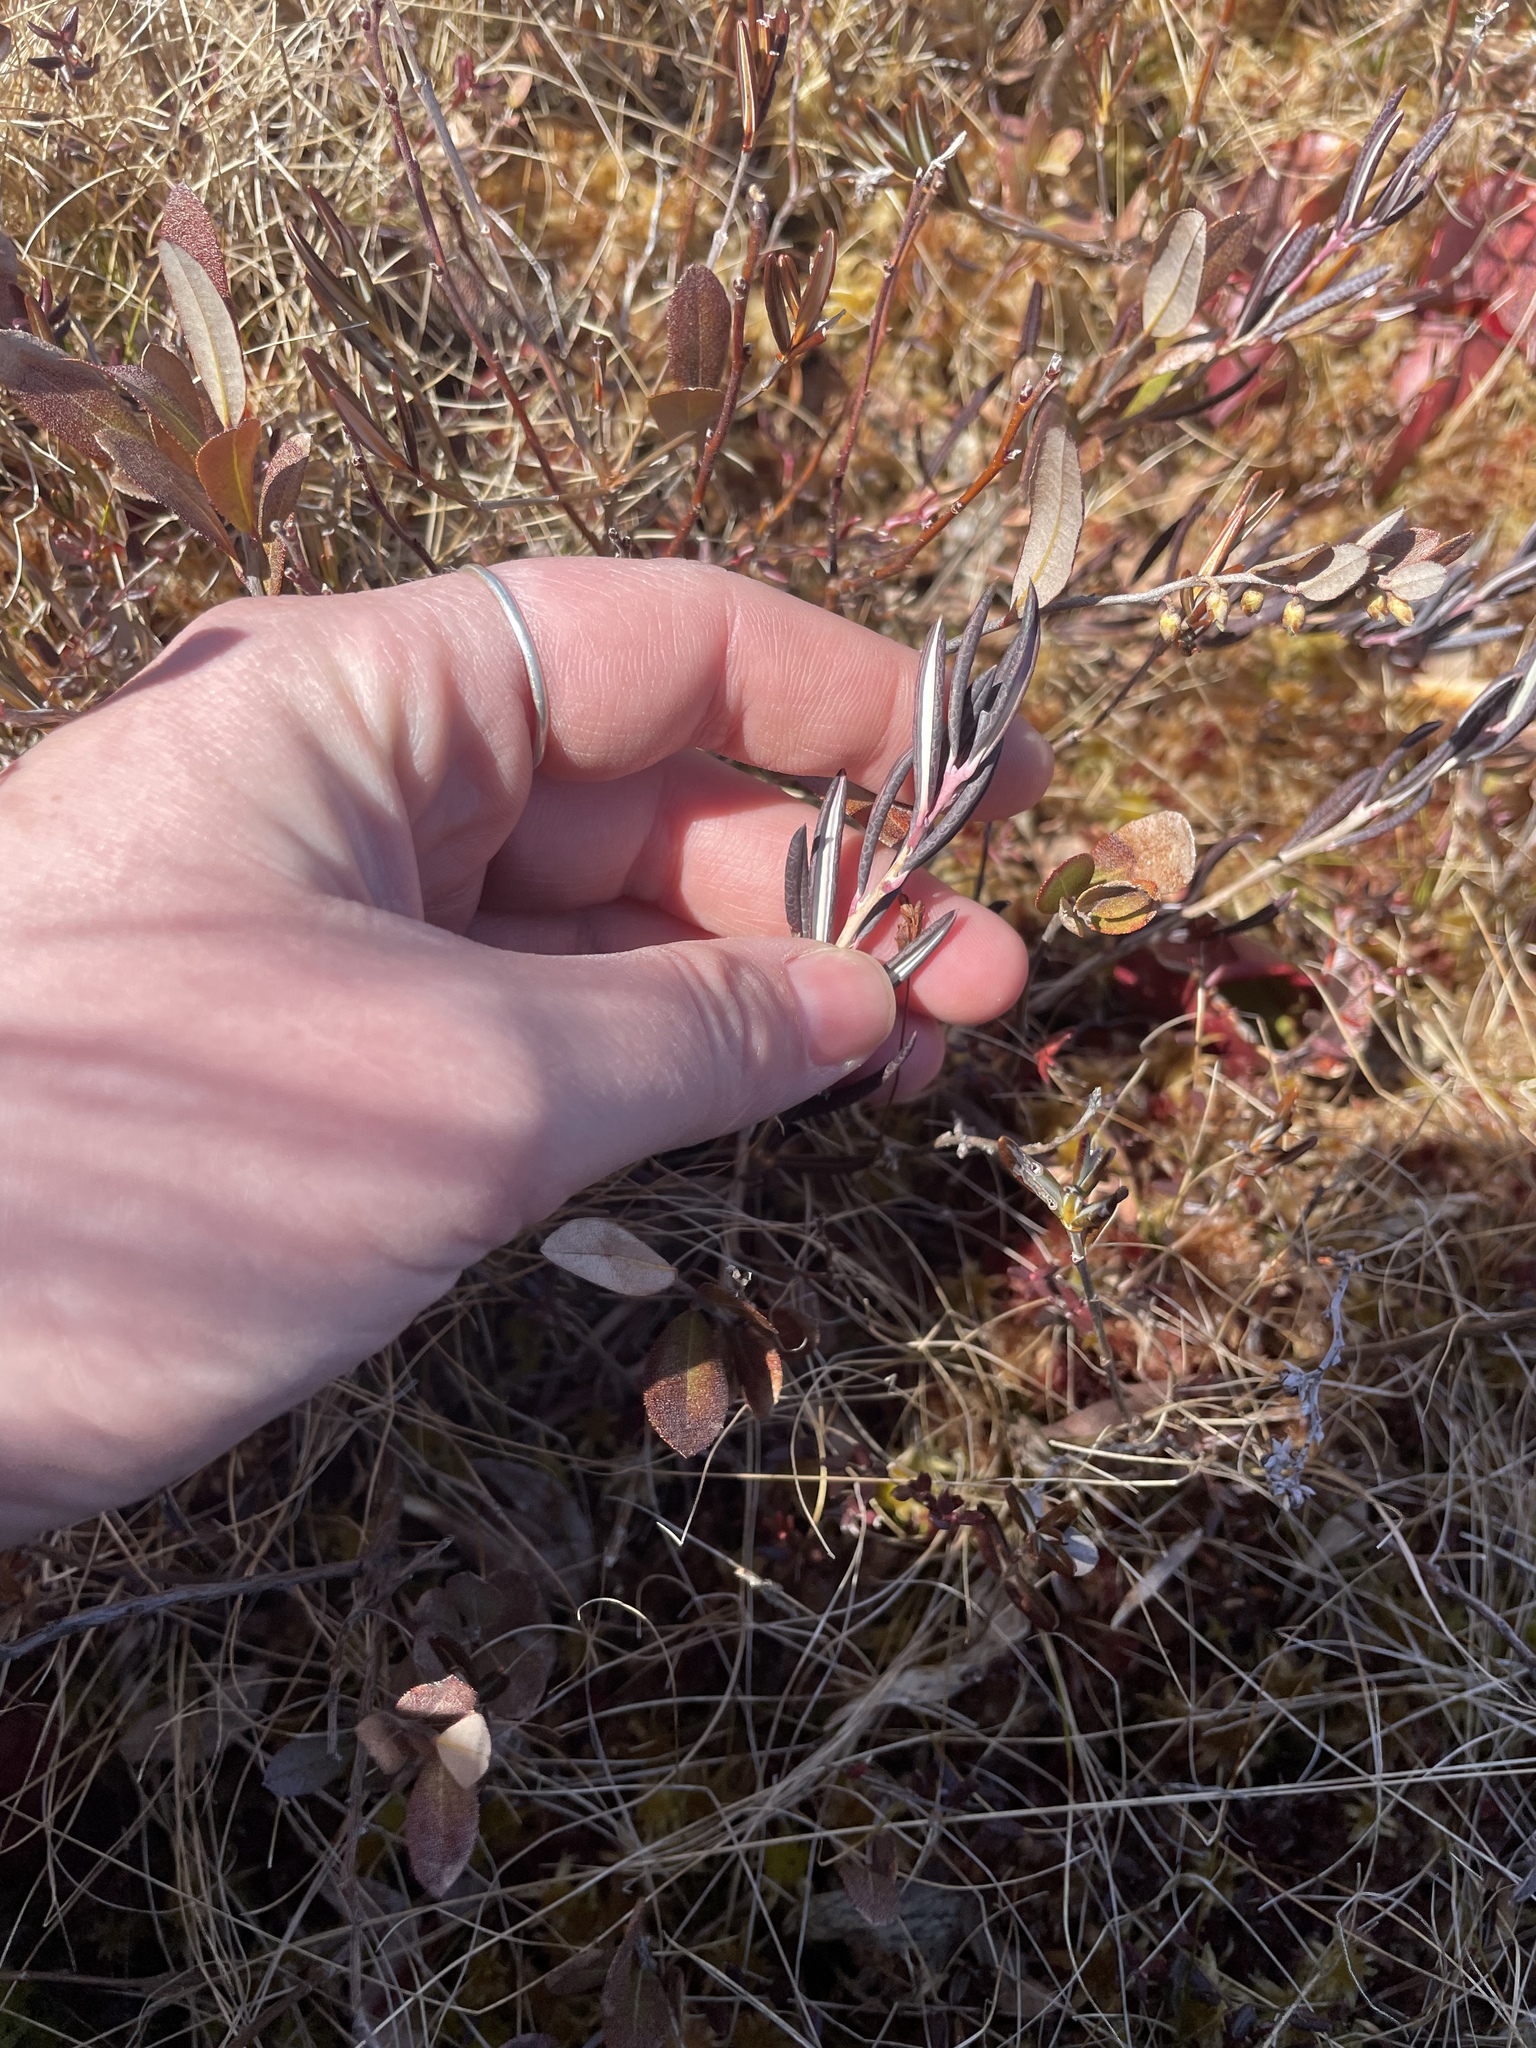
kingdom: Plantae
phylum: Tracheophyta
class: Magnoliopsida
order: Ericales
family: Ericaceae
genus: Andromeda
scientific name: Andromeda polifolia
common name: Bog-rosemary
